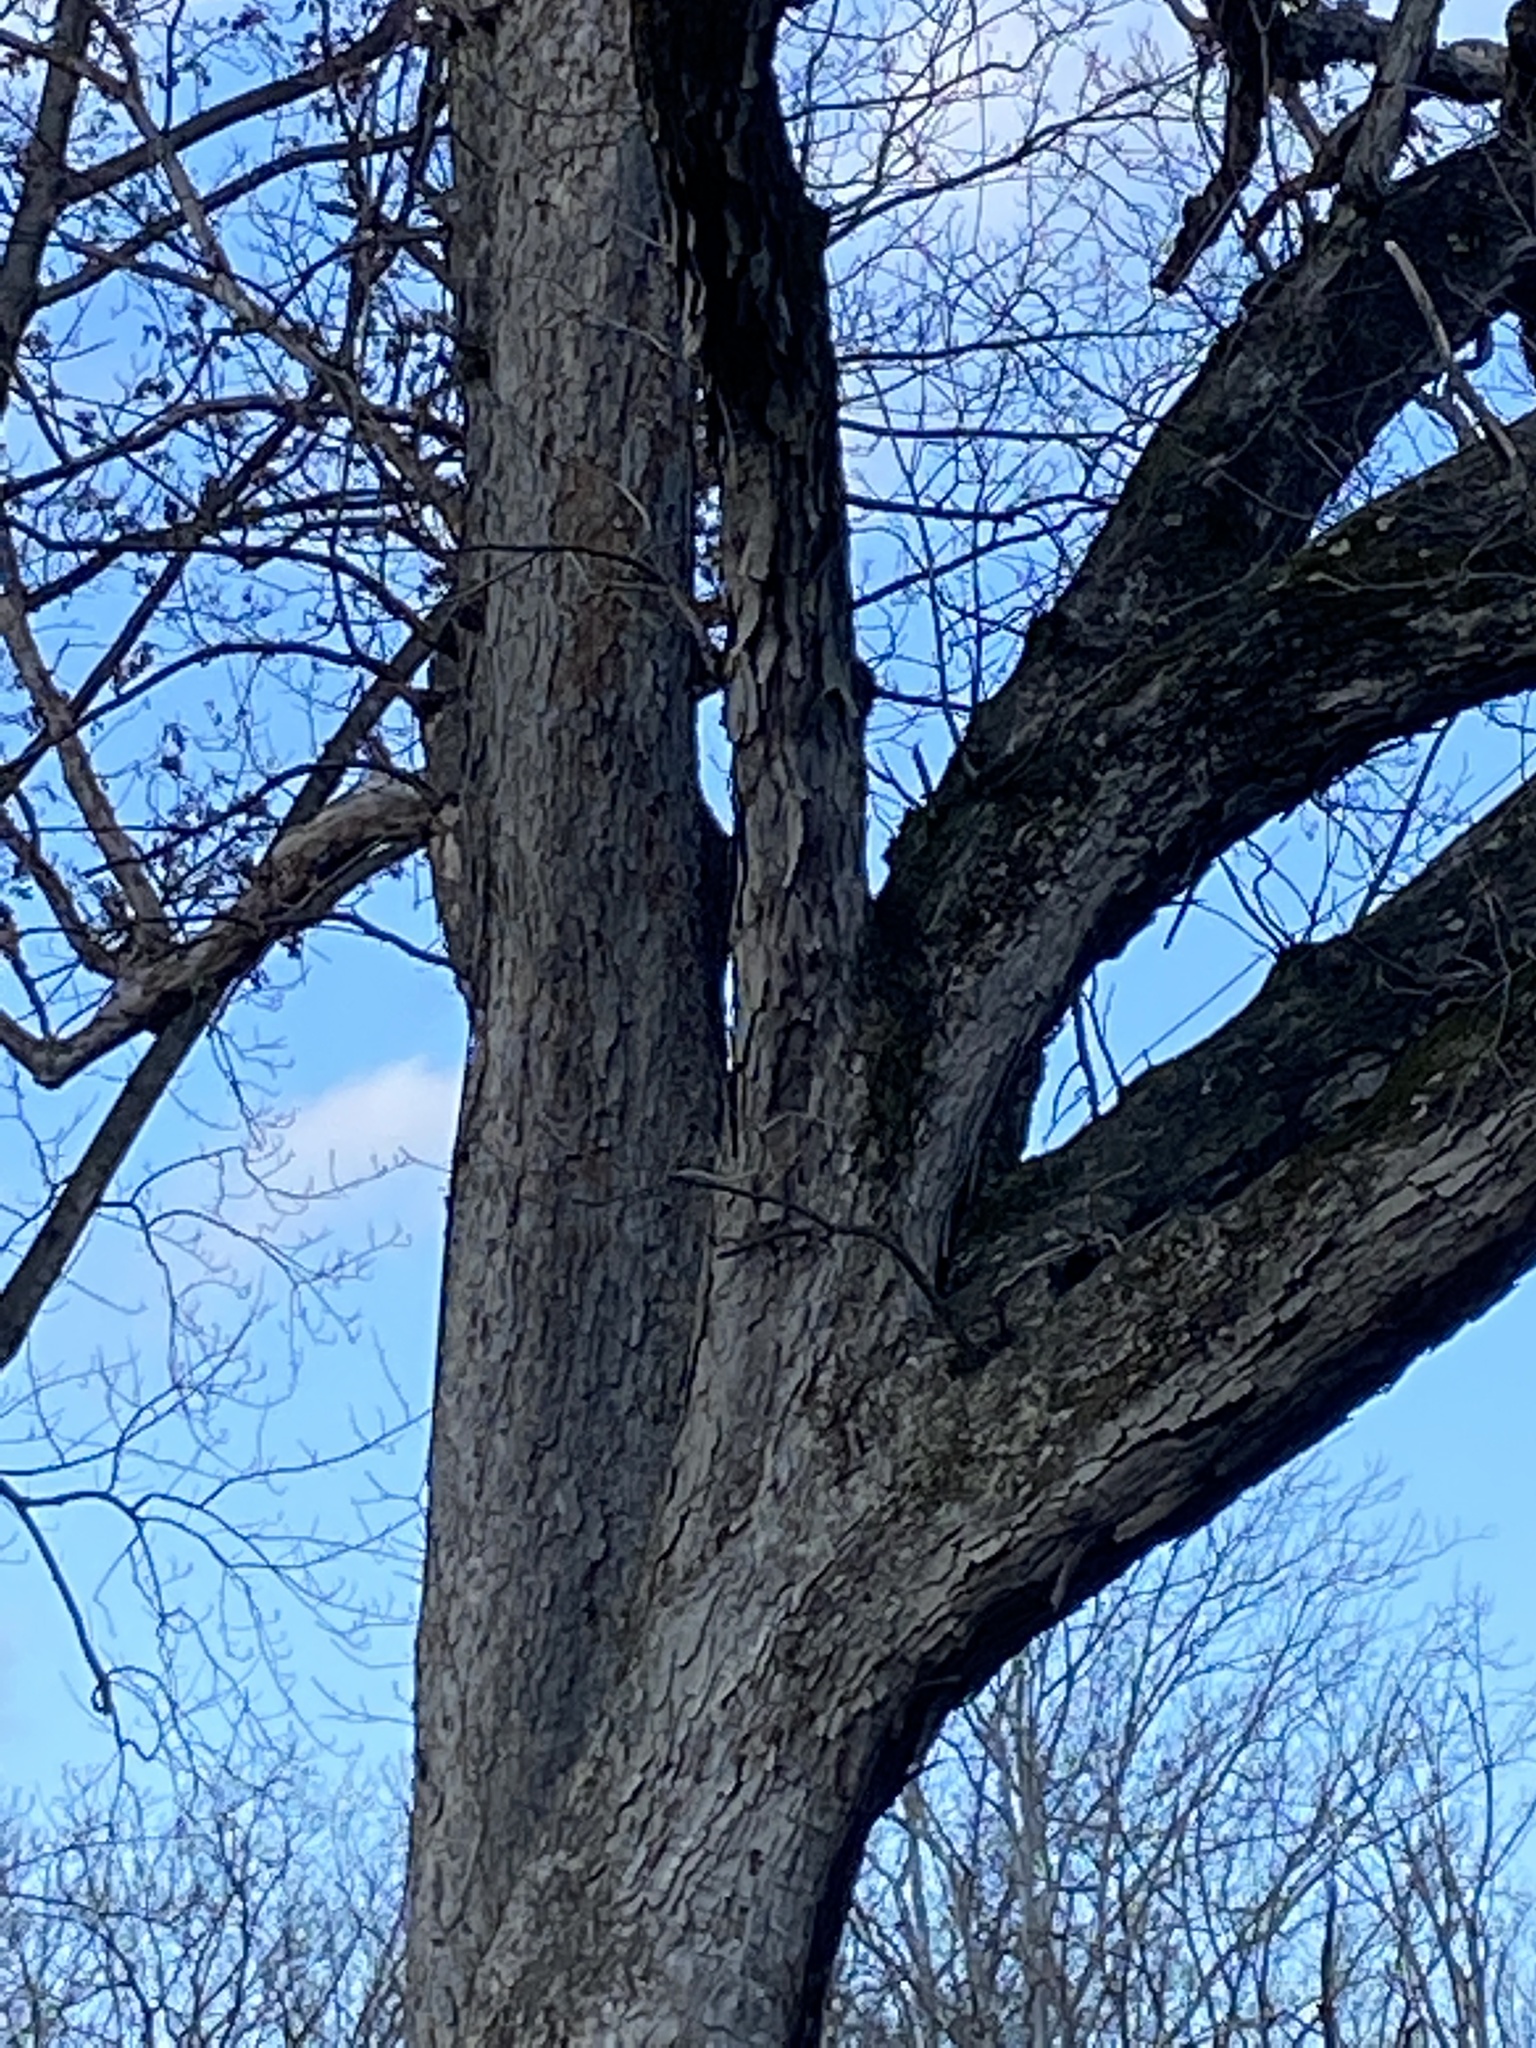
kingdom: Plantae
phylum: Tracheophyta
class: Magnoliopsida
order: Fagales
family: Fagaceae
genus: Quercus
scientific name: Quercus alba
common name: White oak
